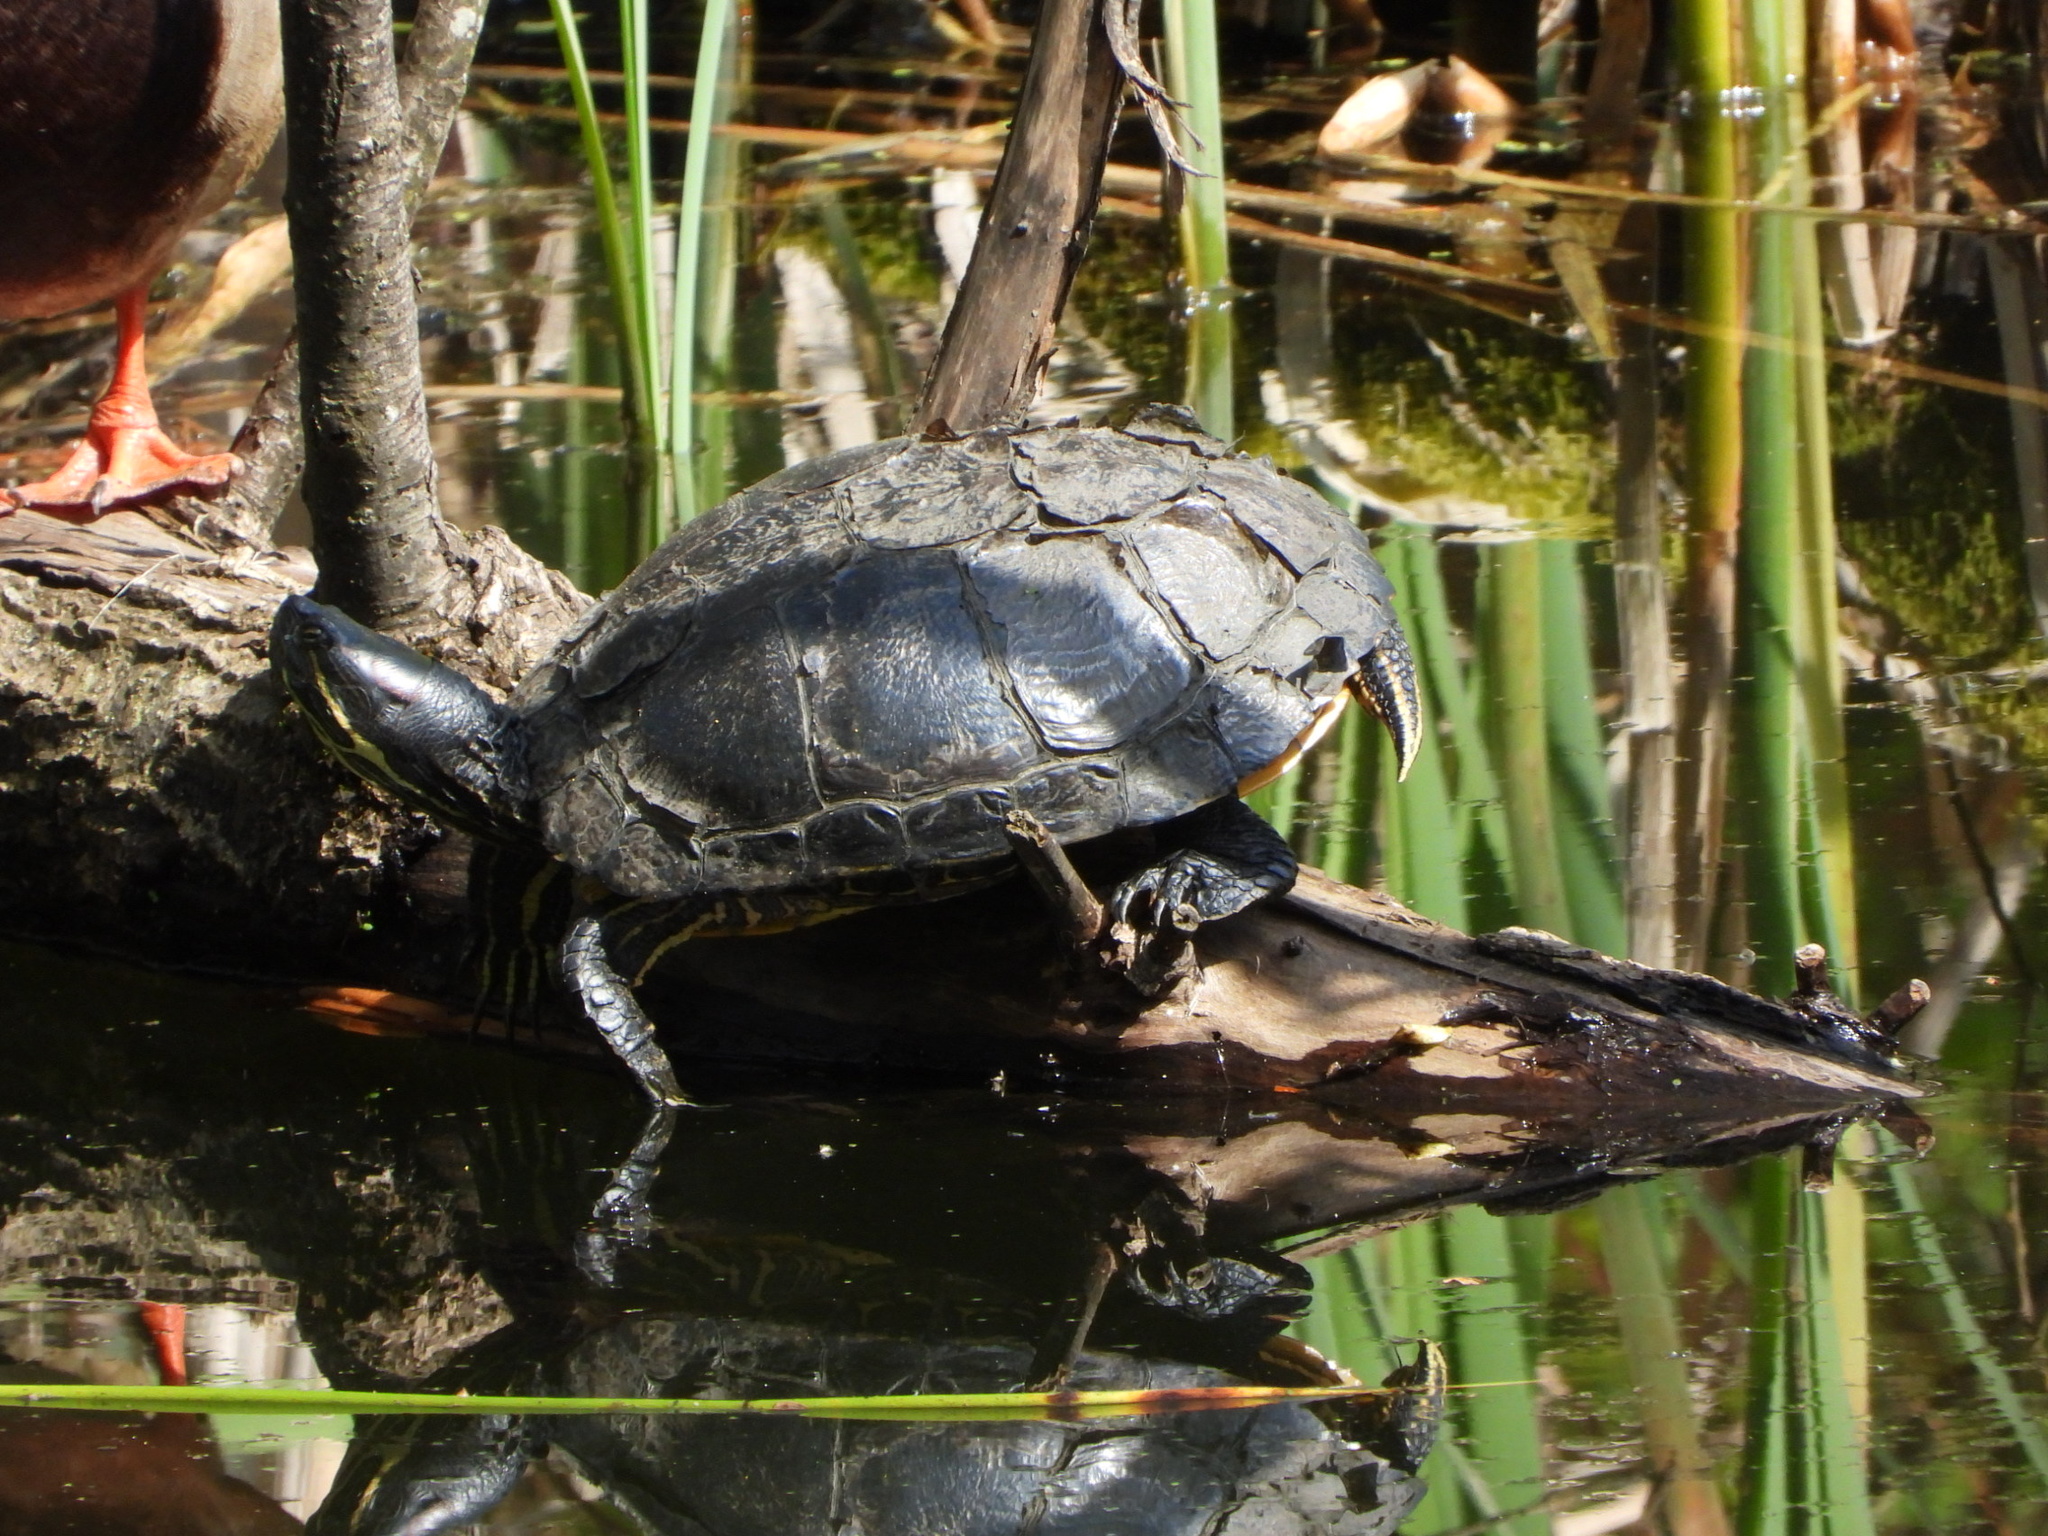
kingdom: Animalia
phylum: Chordata
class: Testudines
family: Emydidae
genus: Trachemys
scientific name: Trachemys scripta
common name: Slider
